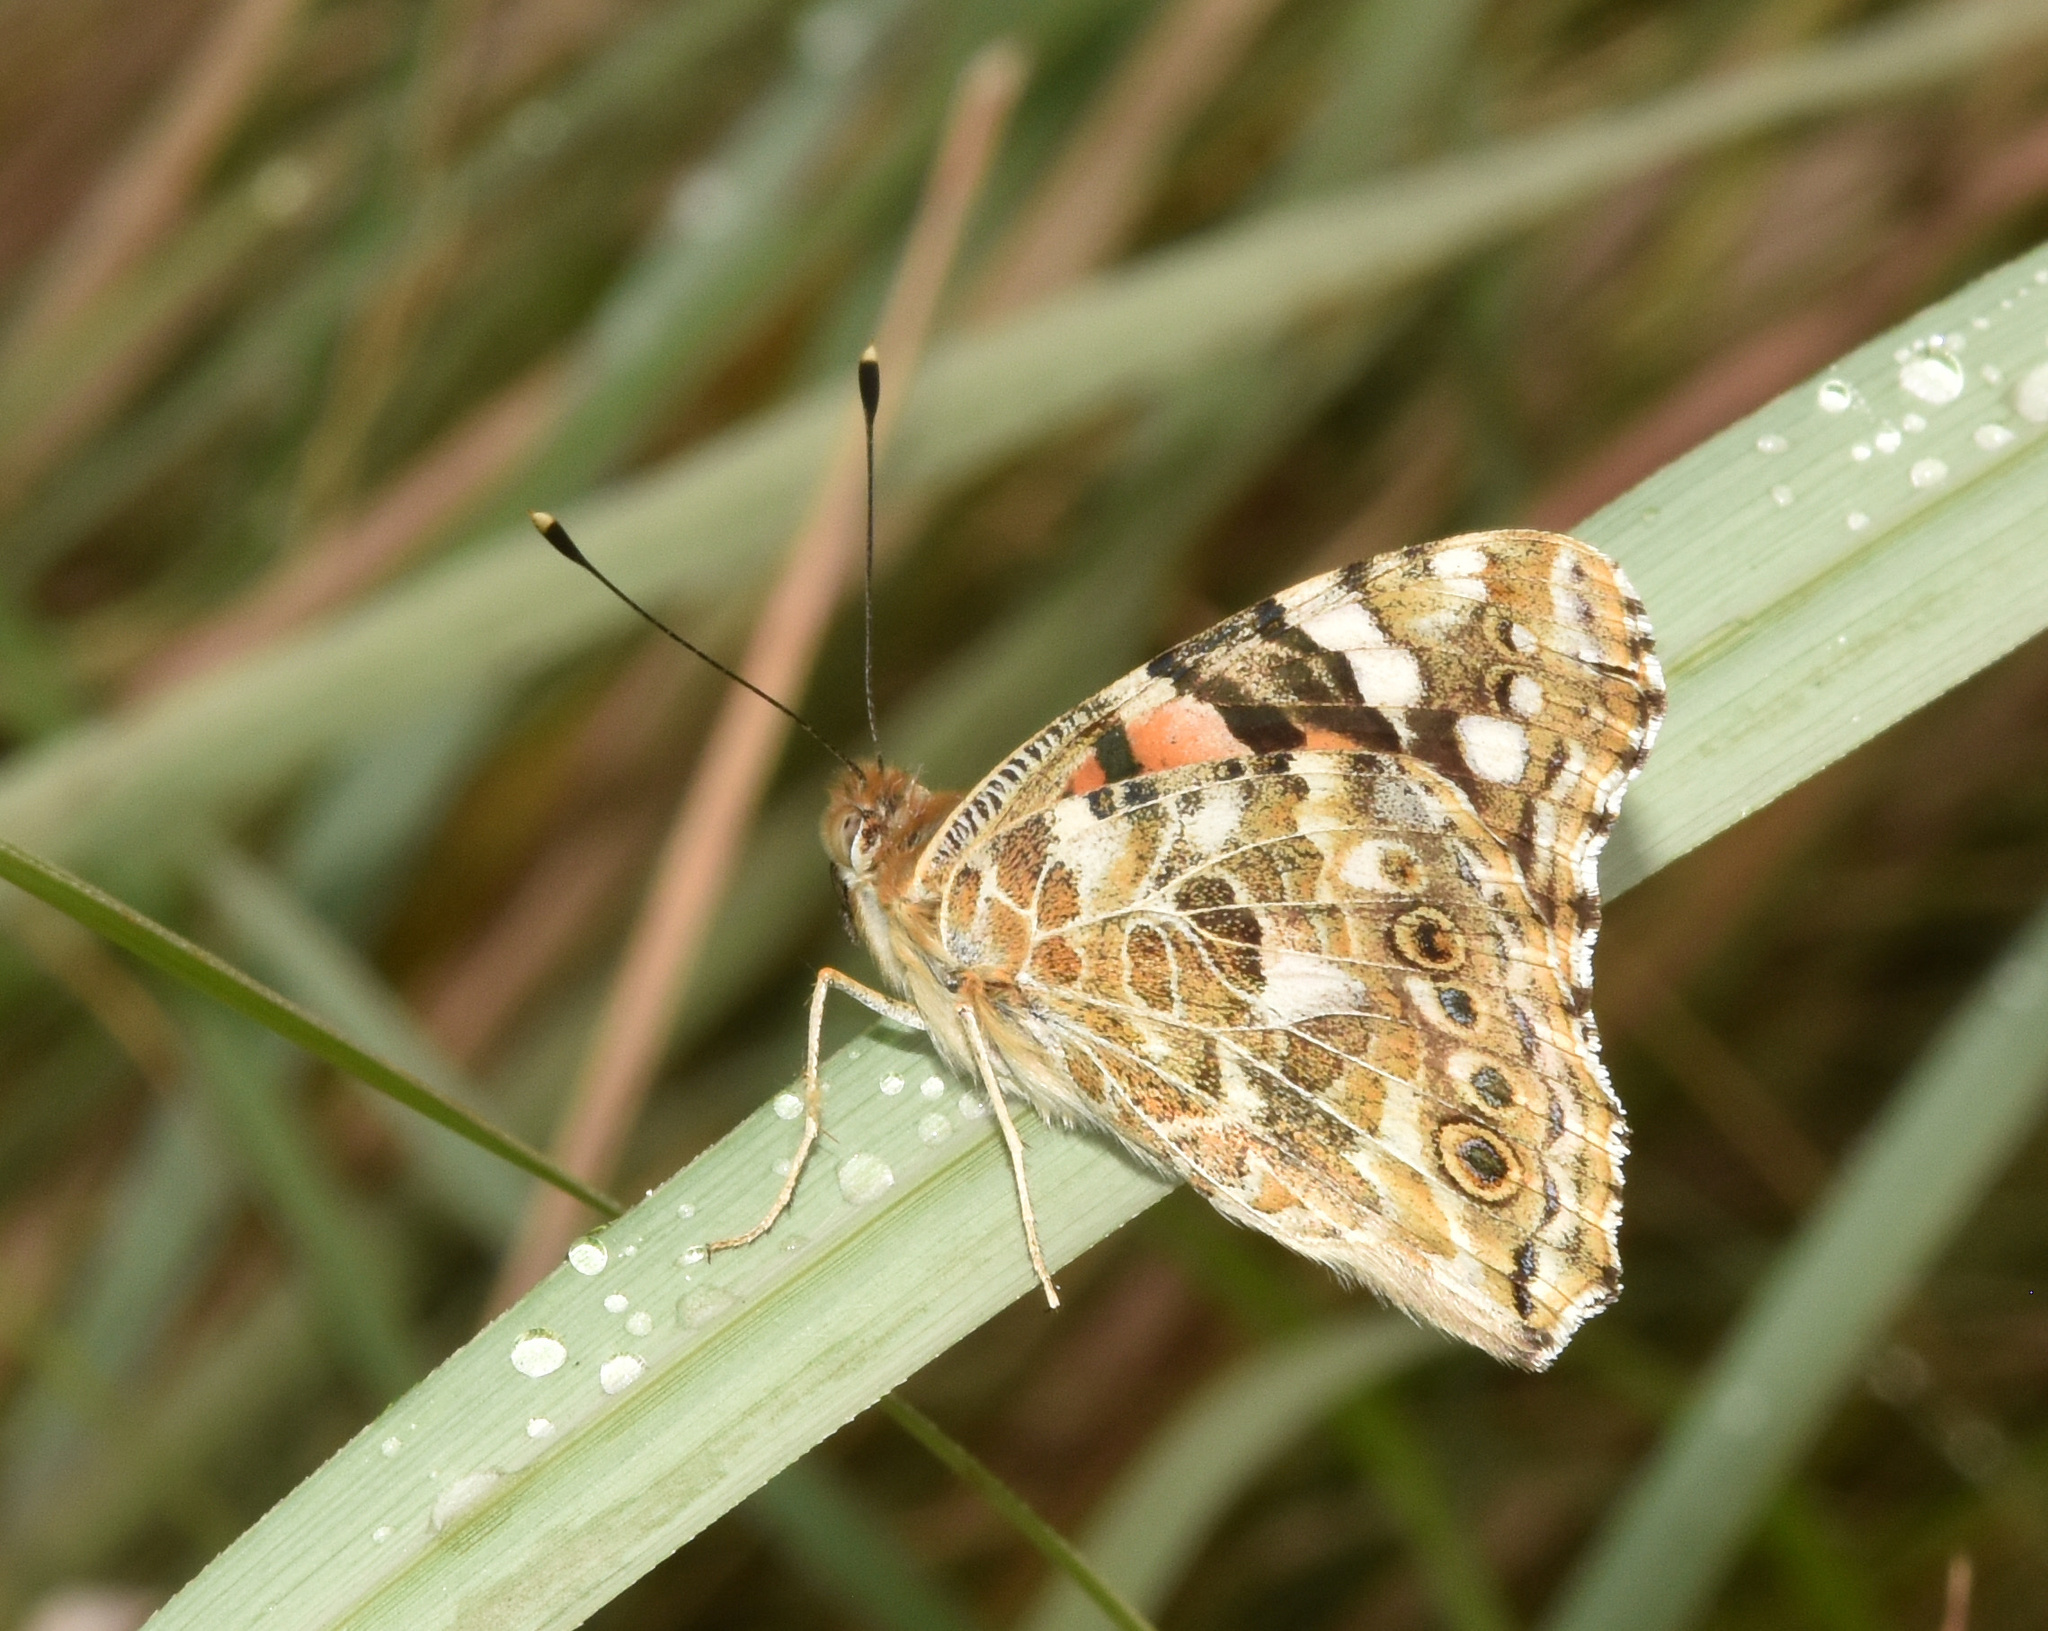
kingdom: Animalia
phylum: Arthropoda
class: Insecta
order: Lepidoptera
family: Nymphalidae
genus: Vanessa
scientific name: Vanessa cardui
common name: Painted lady
